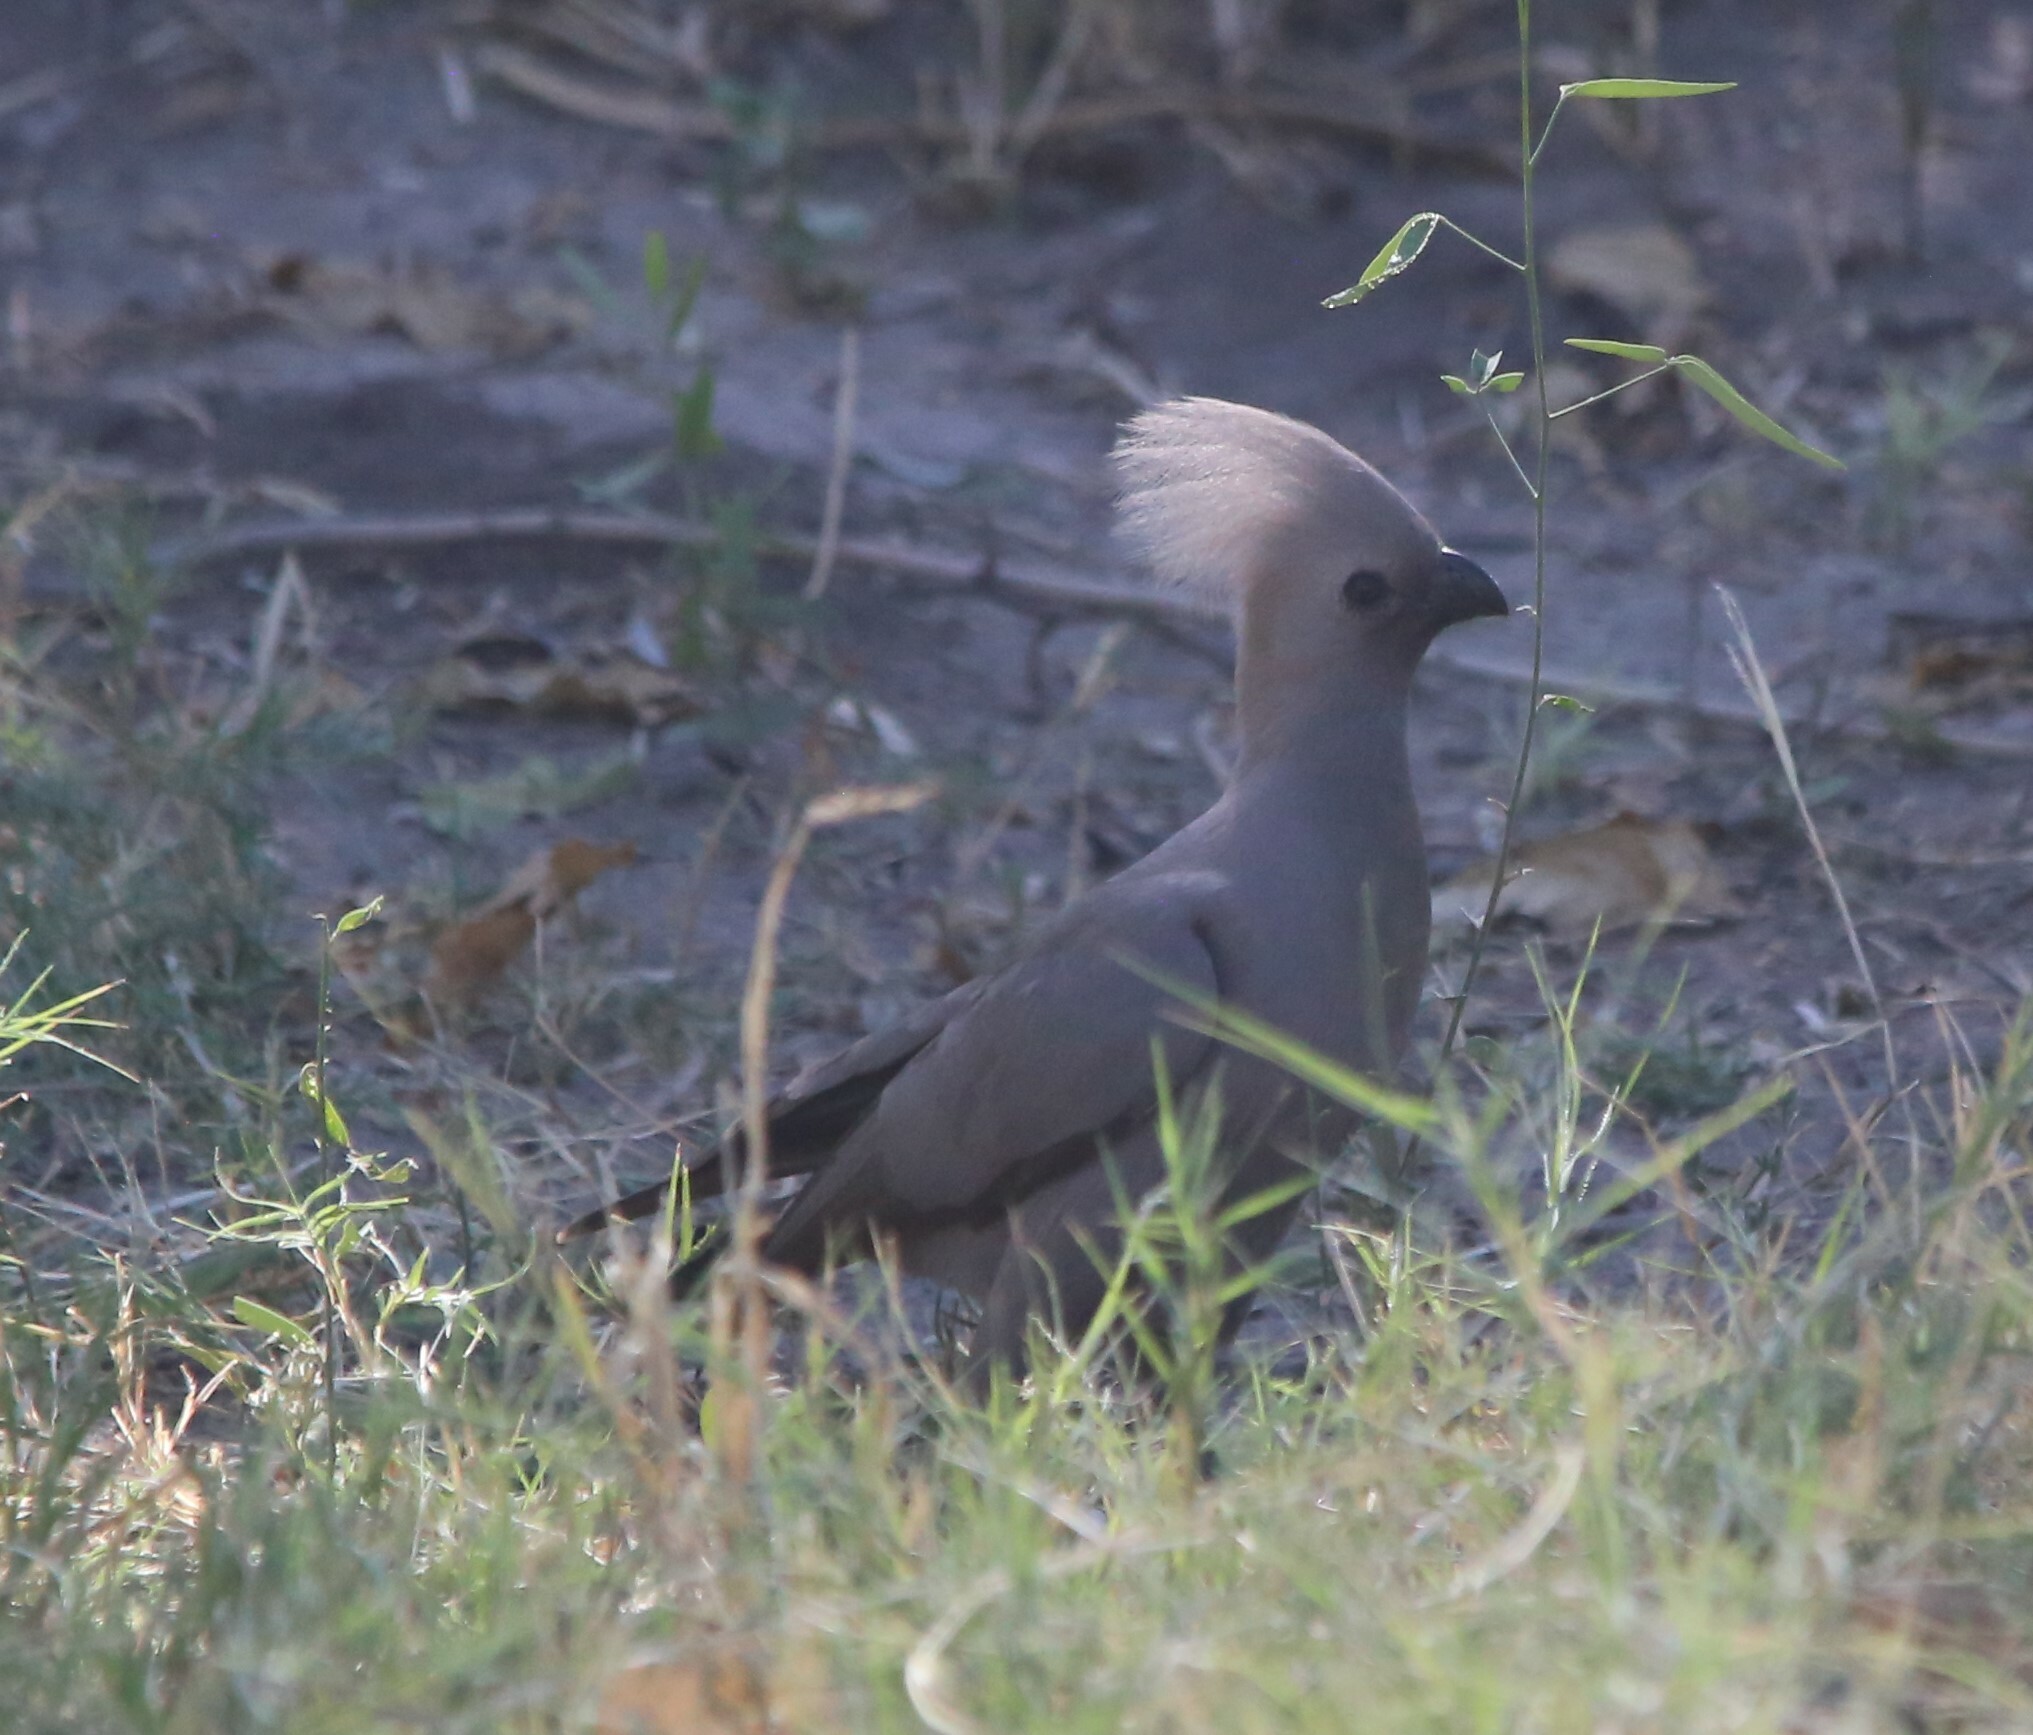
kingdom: Animalia
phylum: Chordata
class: Aves
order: Musophagiformes
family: Musophagidae
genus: Corythaixoides
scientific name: Corythaixoides concolor
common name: Grey go-away-bird
